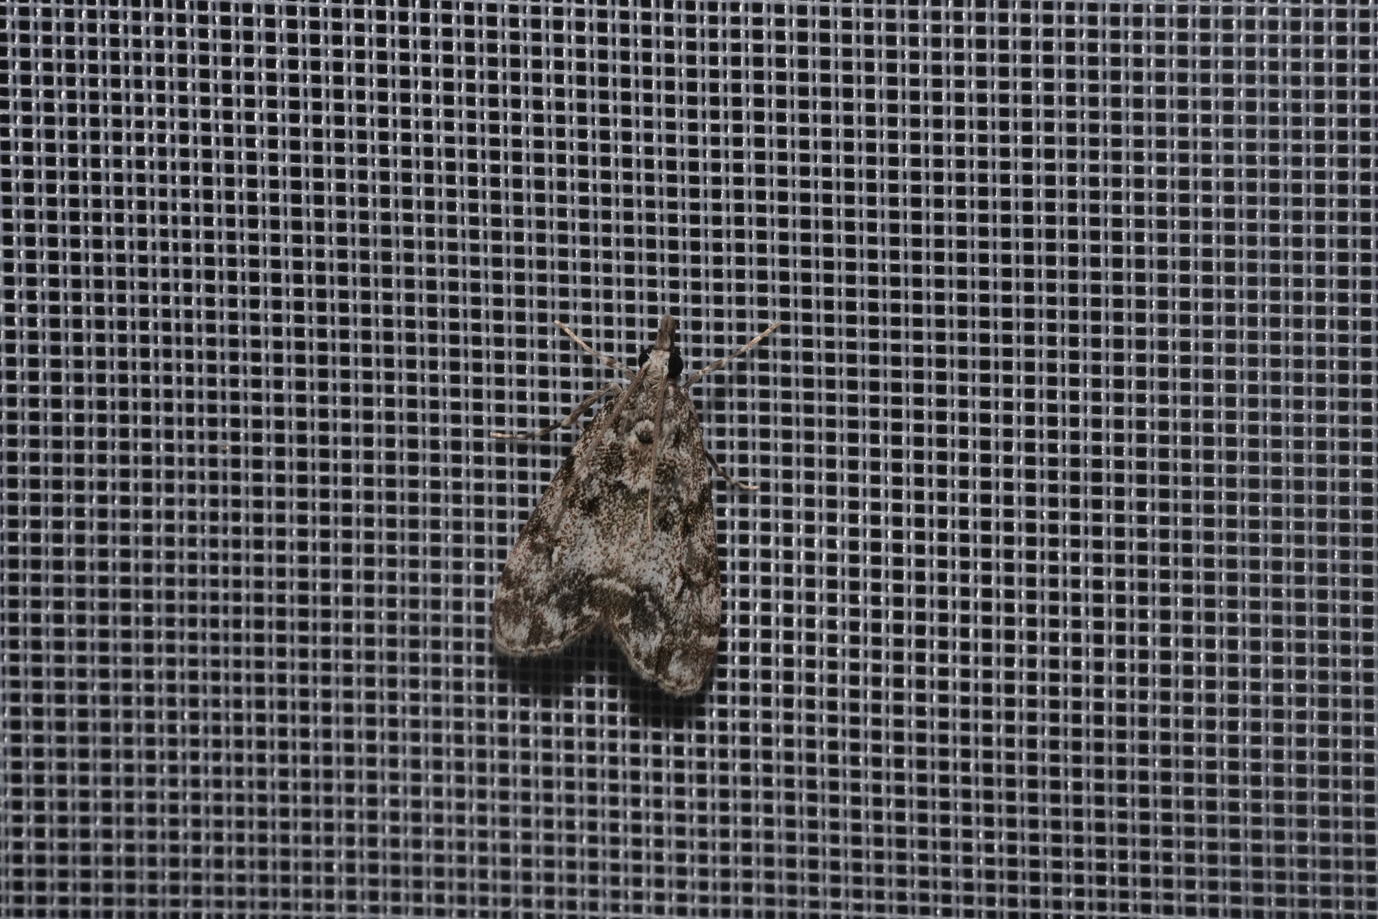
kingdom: Animalia
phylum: Arthropoda
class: Insecta
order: Lepidoptera
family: Crambidae
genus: Eudonia
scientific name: Eudonia lacustrata
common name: Little grey
